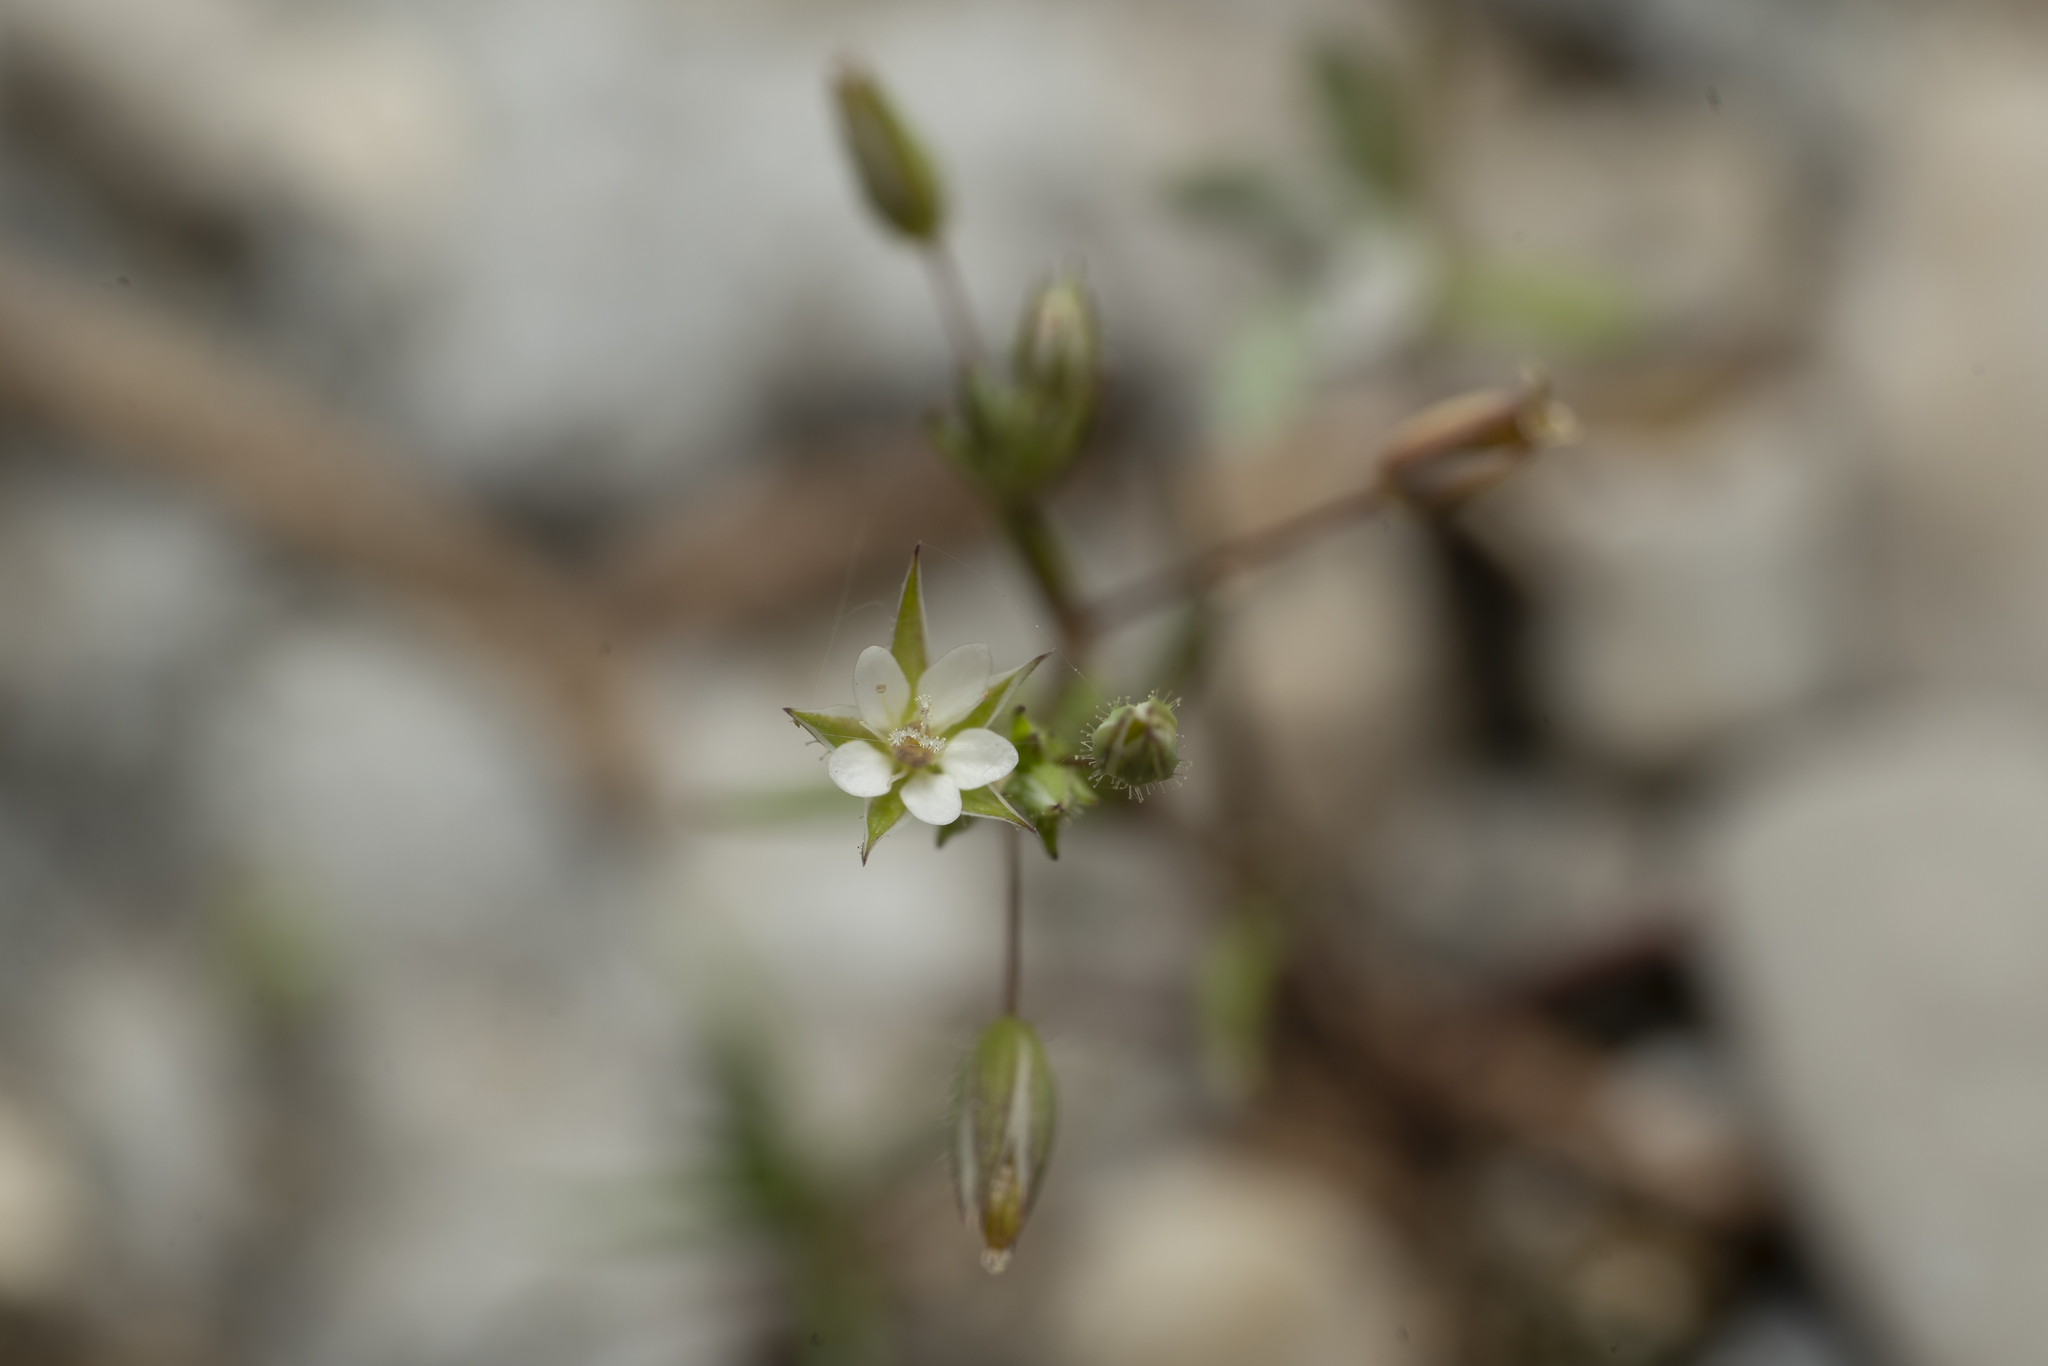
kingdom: Plantae
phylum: Tracheophyta
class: Magnoliopsida
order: Caryophyllales
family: Caryophyllaceae
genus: Sabulina
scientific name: Sabulina tenuifolia
